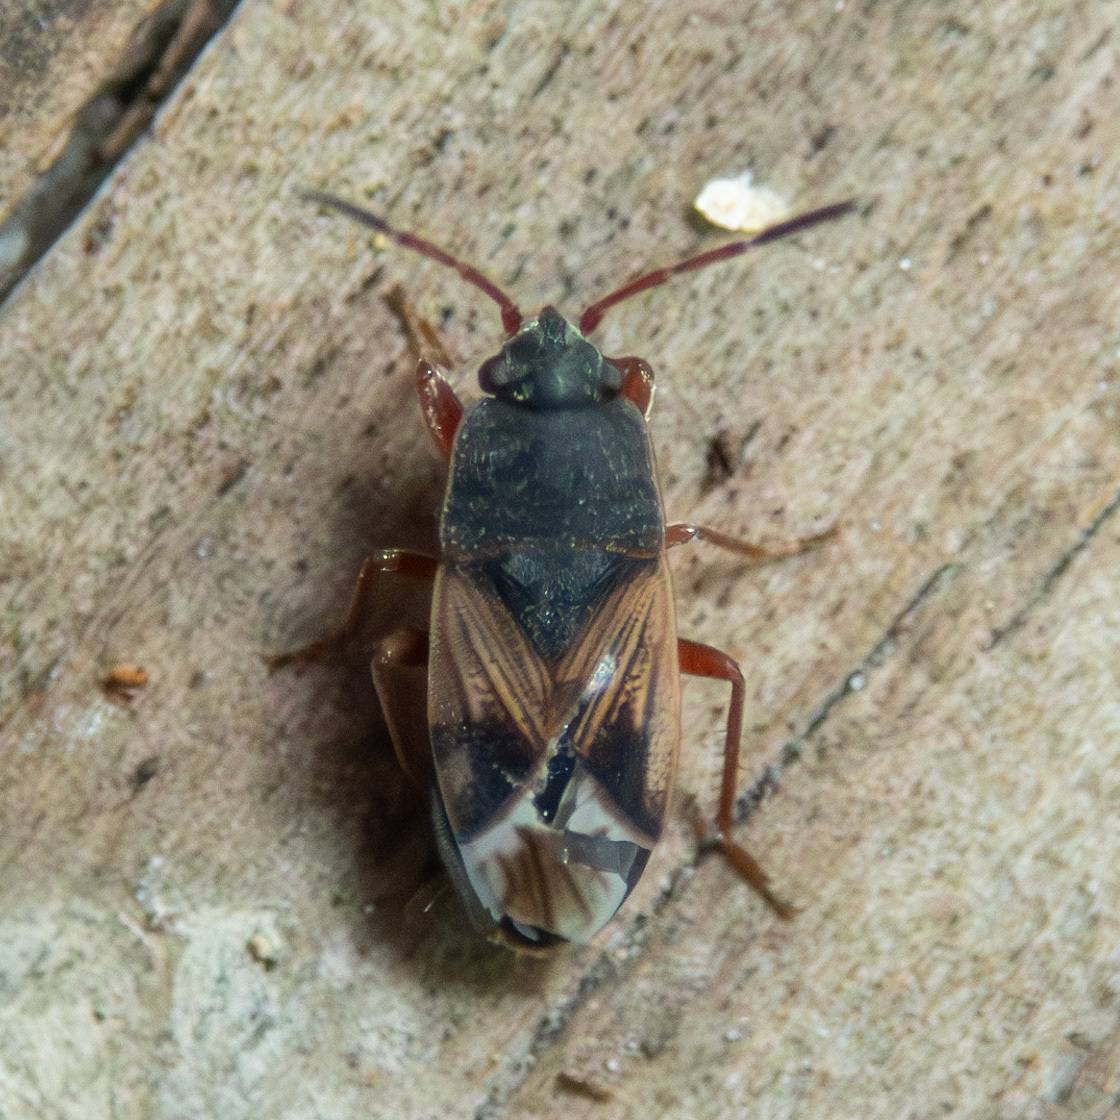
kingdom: Animalia
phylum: Arthropoda
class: Insecta
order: Hemiptera
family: Rhyparochromidae
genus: Malezonotus
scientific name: Malezonotus rufipes
